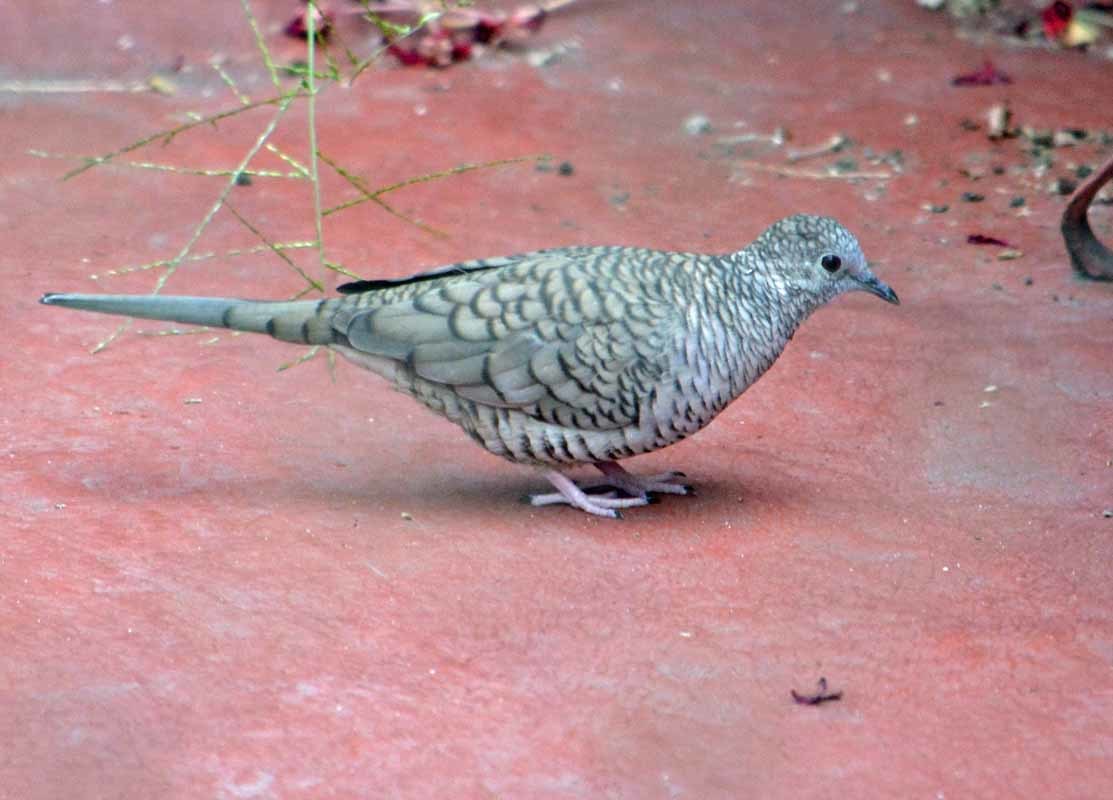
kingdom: Animalia
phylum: Chordata
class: Aves
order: Columbiformes
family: Columbidae
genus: Columbina
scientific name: Columbina inca
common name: Inca dove
